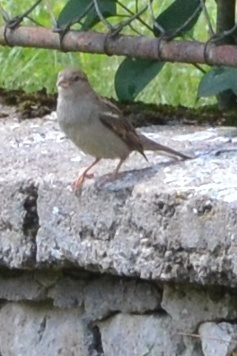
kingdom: Animalia
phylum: Chordata
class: Aves
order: Passeriformes
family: Passeridae
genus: Passer
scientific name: Passer domesticus
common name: House sparrow
